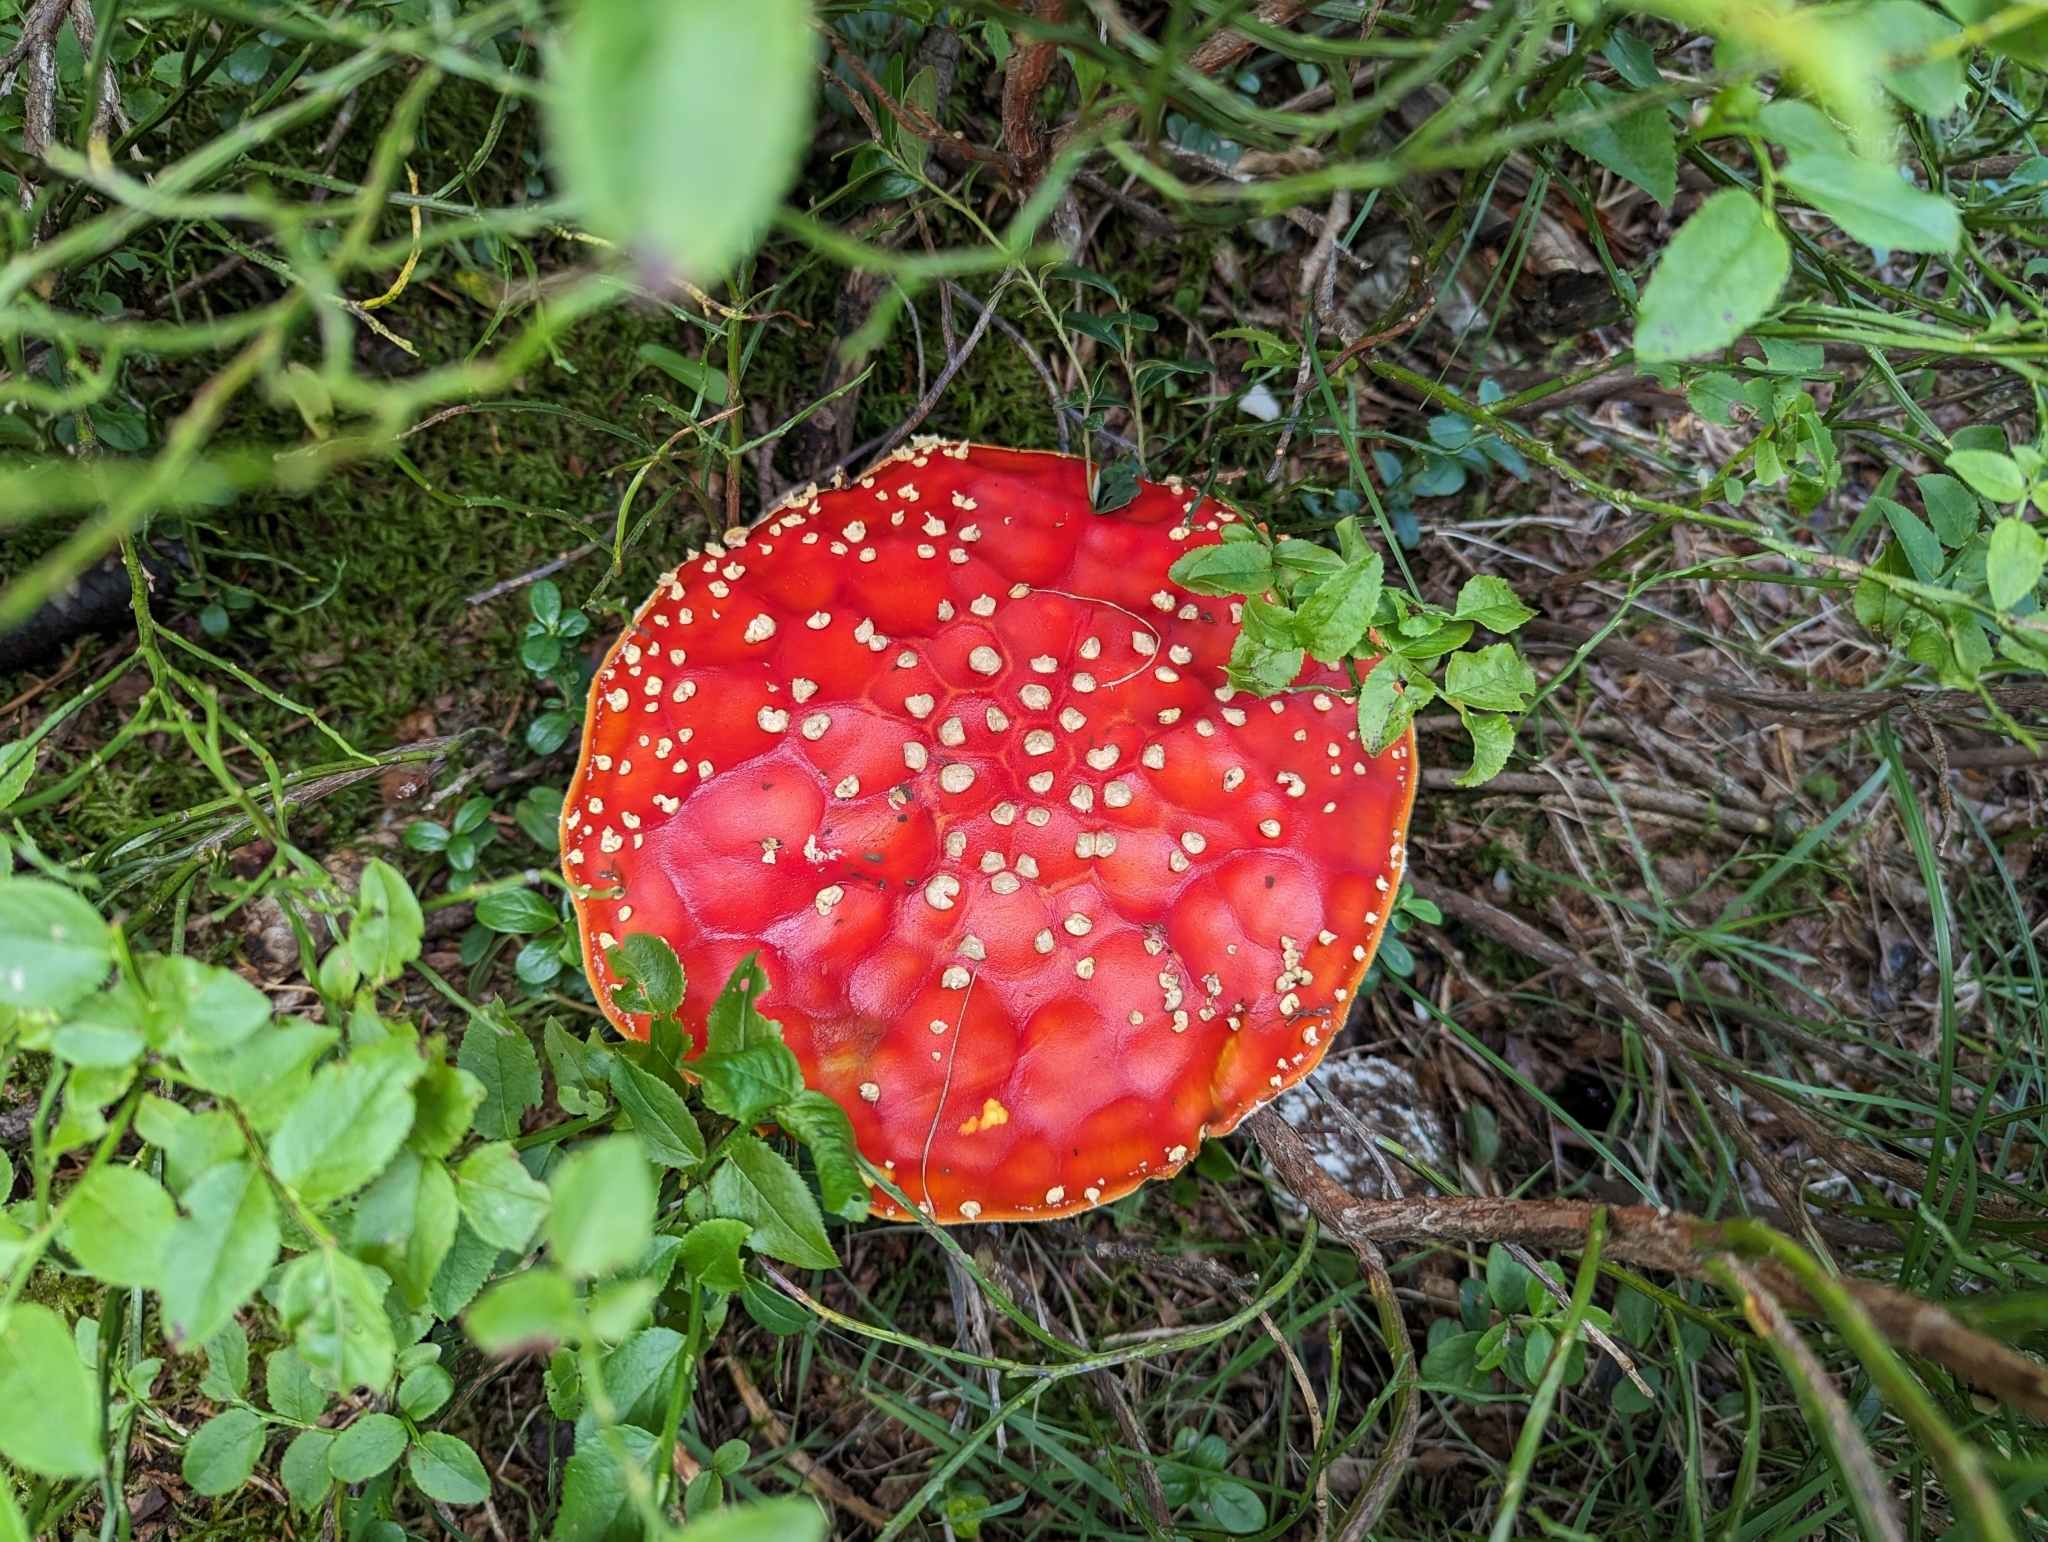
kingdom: Fungi
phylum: Basidiomycota
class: Agaricomycetes
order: Agaricales
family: Amanitaceae
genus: Amanita
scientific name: Amanita muscaria
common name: Fly agaric
